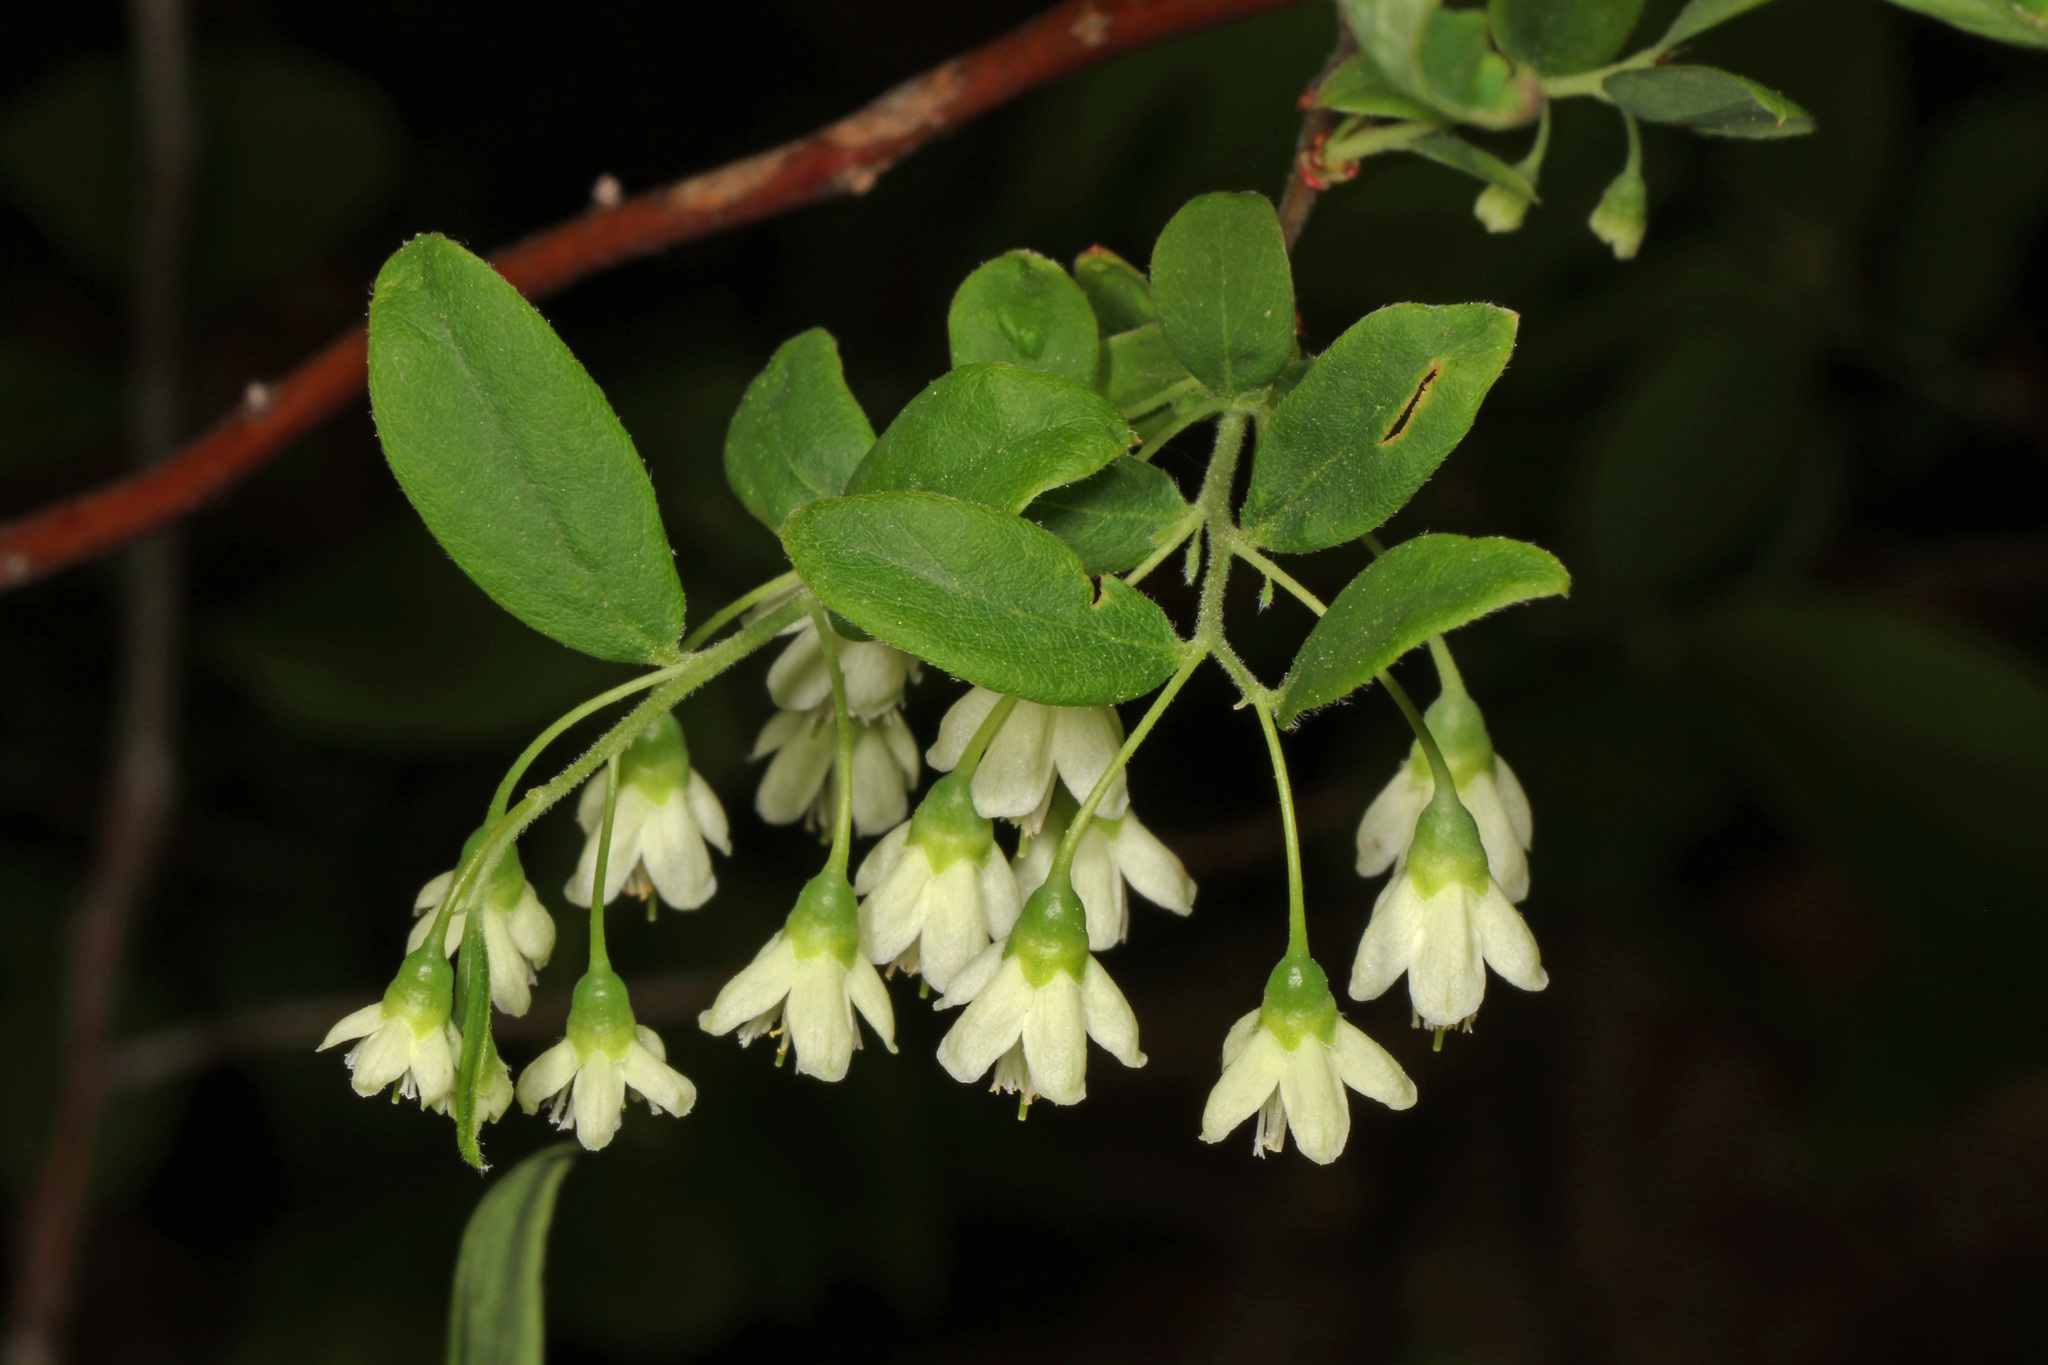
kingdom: Plantae
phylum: Tracheophyta
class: Magnoliopsida
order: Ericales
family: Ericaceae
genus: Vaccinium
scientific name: Vaccinium stamineum
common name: Deerberry
